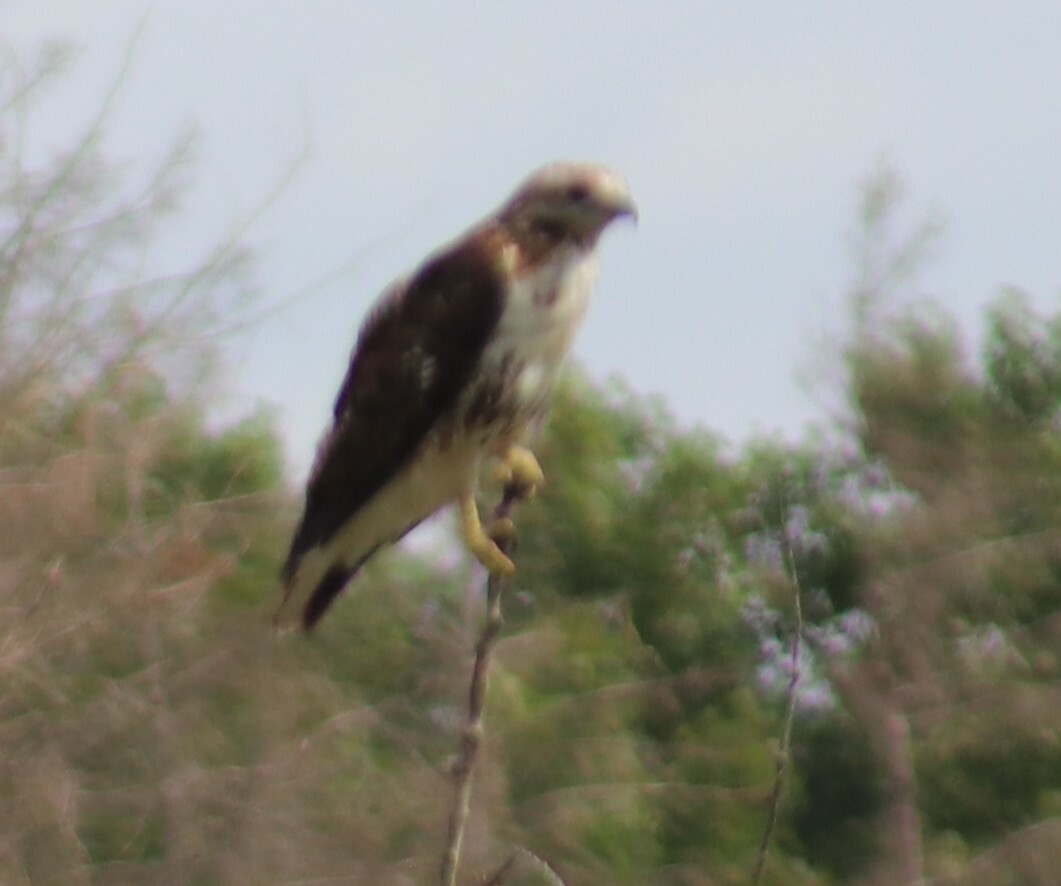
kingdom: Animalia
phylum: Chordata
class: Aves
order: Accipitriformes
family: Accipitridae
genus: Buteo
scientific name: Buteo jamaicensis
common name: Red-tailed hawk
